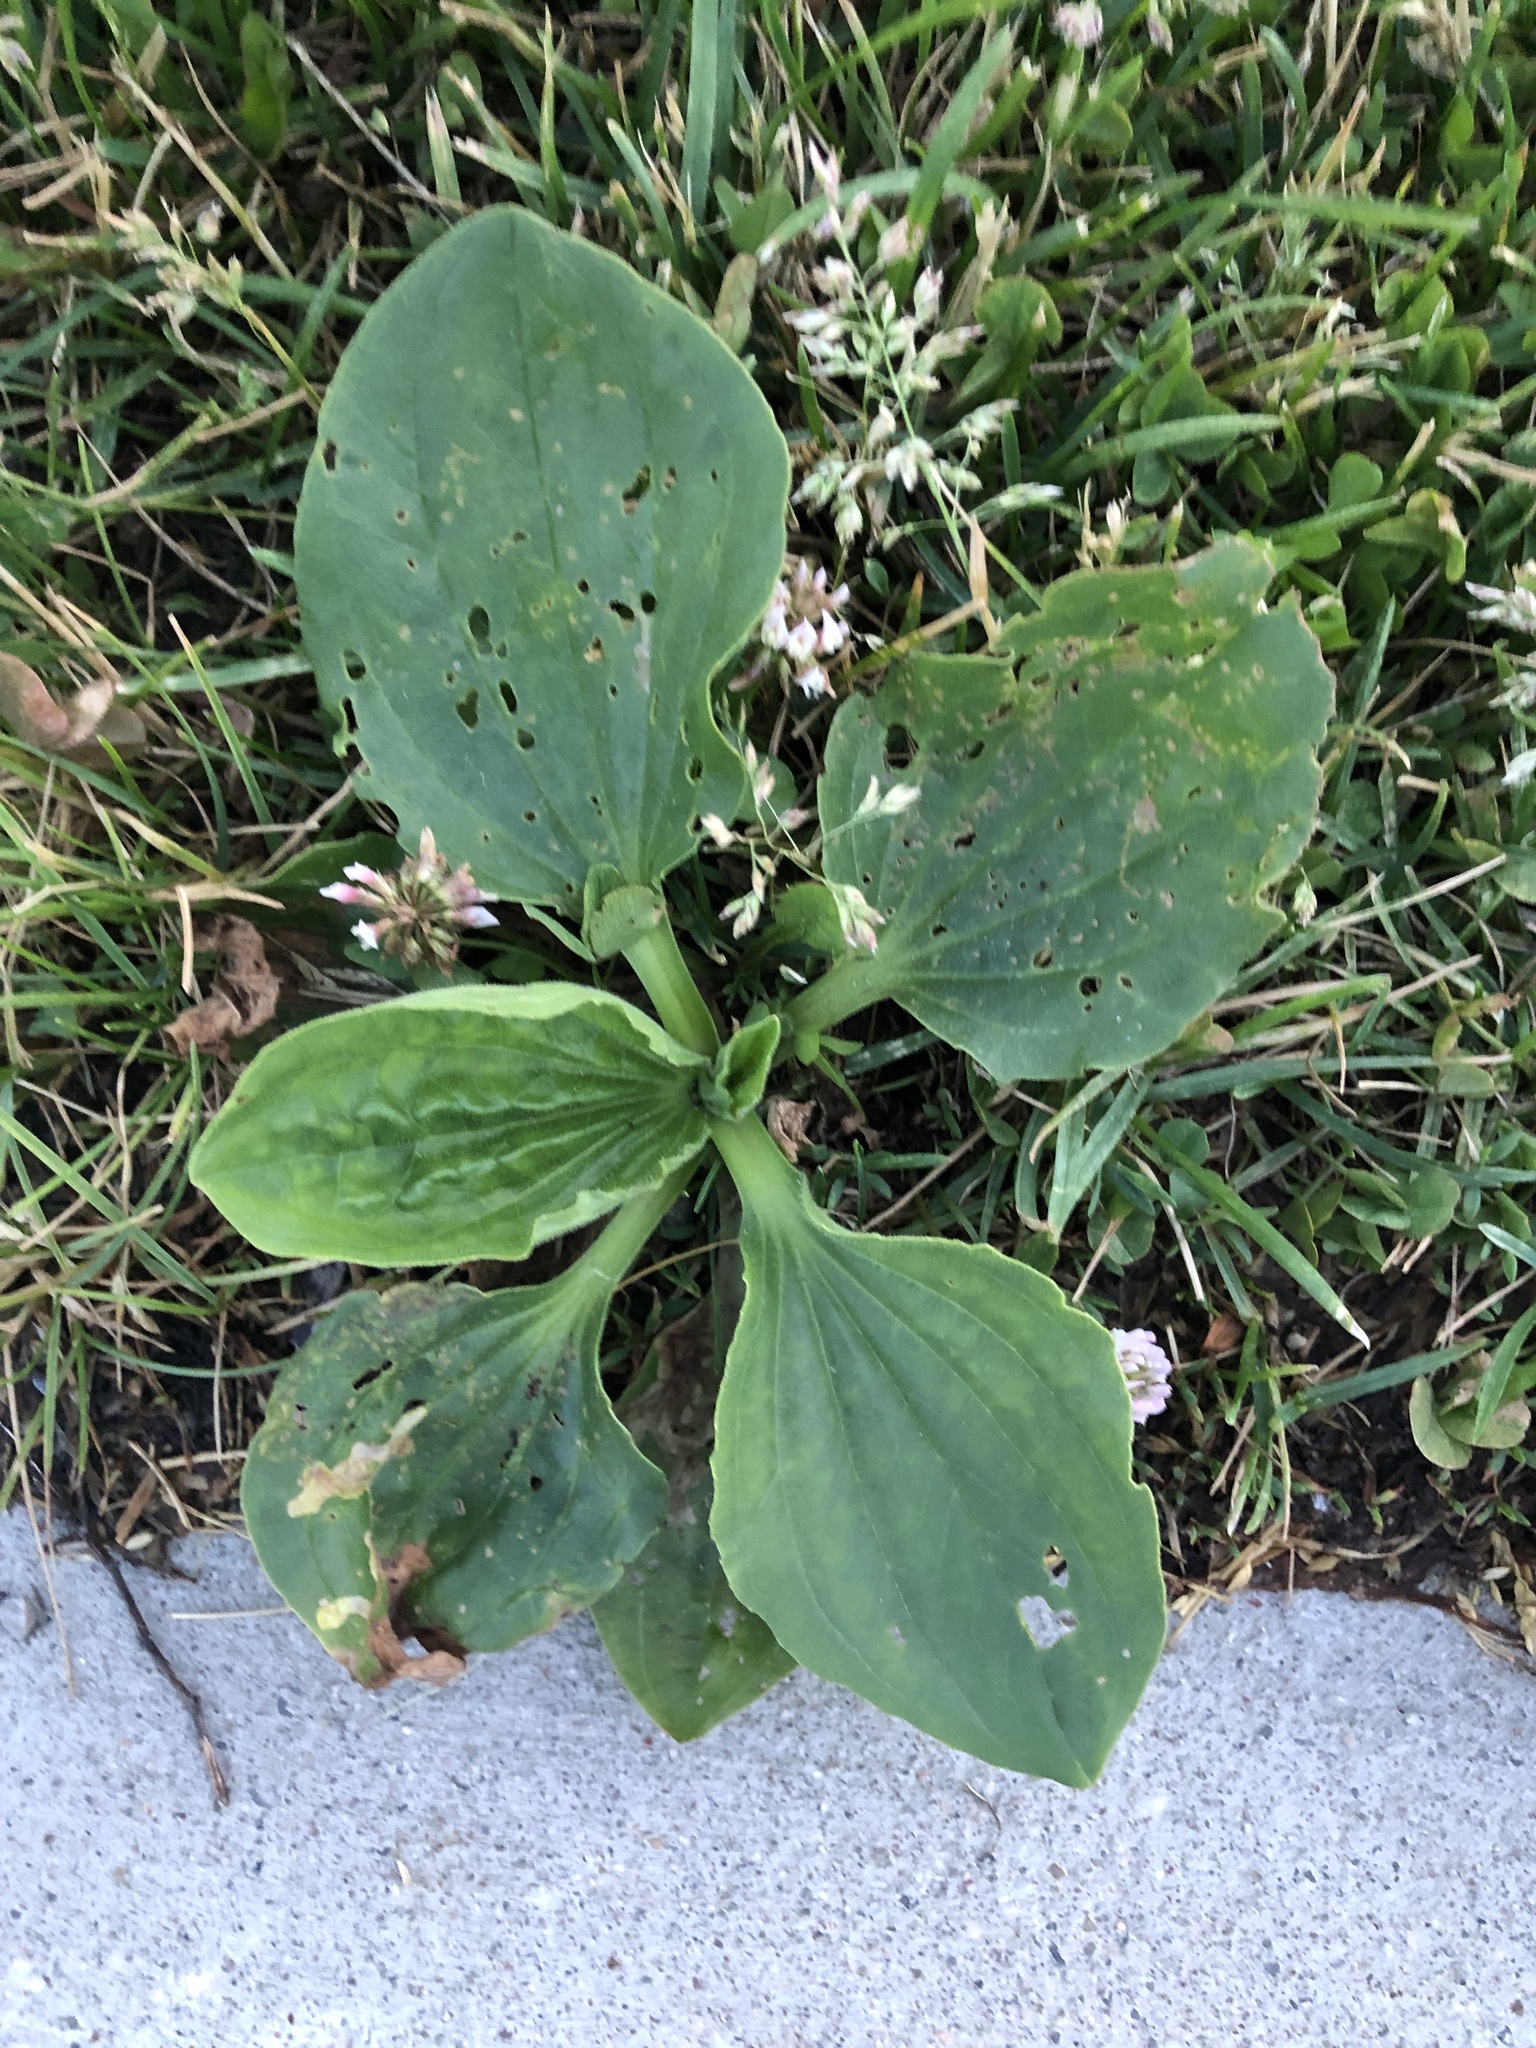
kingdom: Plantae
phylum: Tracheophyta
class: Magnoliopsida
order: Lamiales
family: Plantaginaceae
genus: Plantago
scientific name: Plantago major
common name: Common plantain
